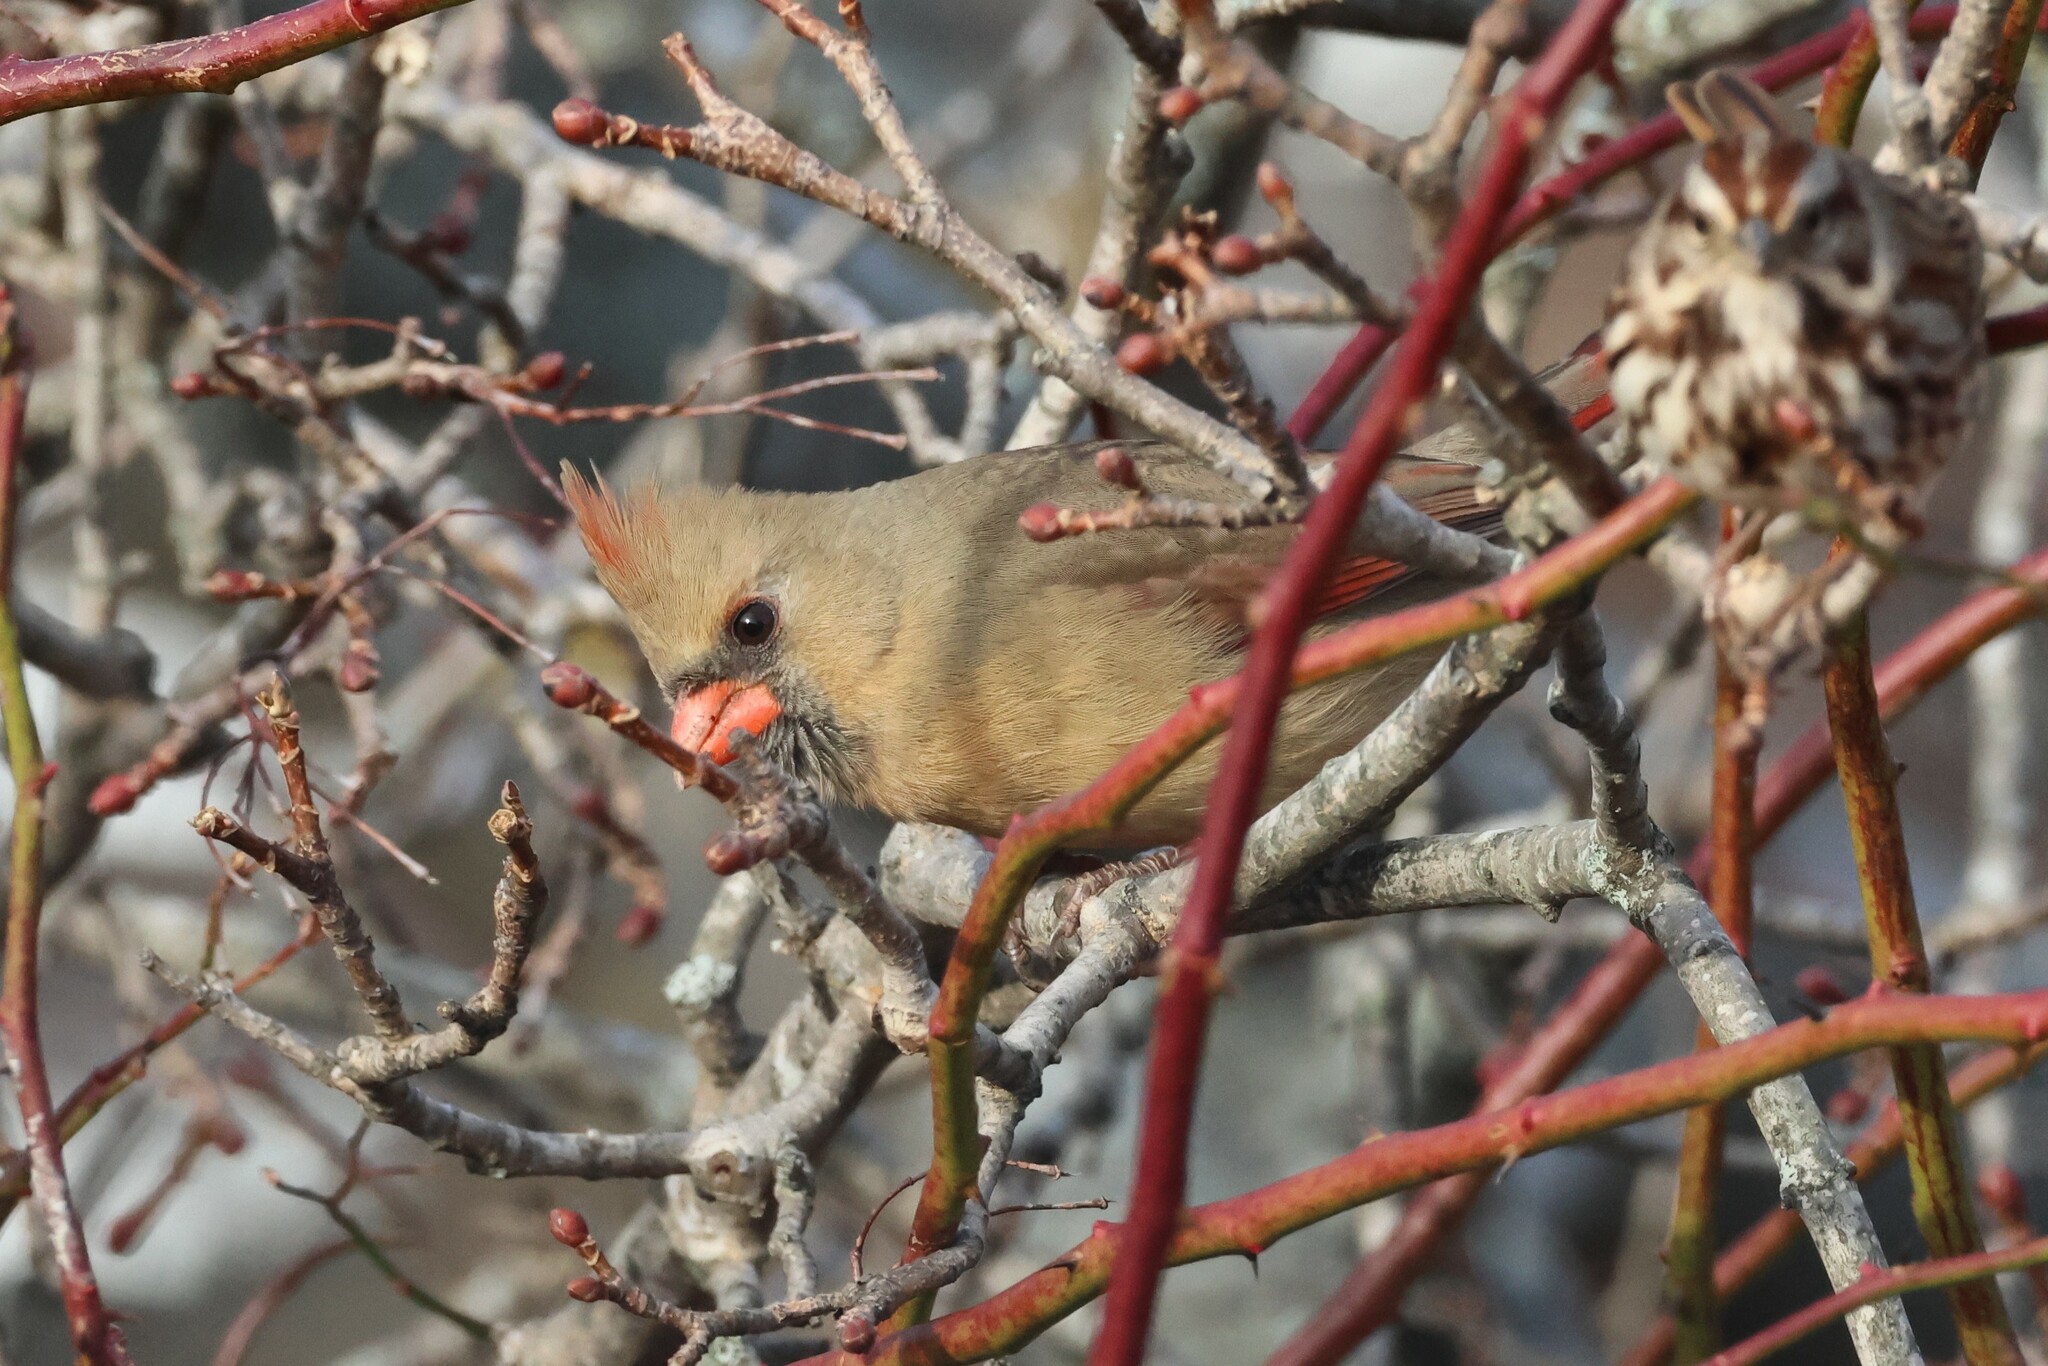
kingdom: Animalia
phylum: Chordata
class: Aves
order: Passeriformes
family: Cardinalidae
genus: Cardinalis
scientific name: Cardinalis cardinalis
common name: Northern cardinal
